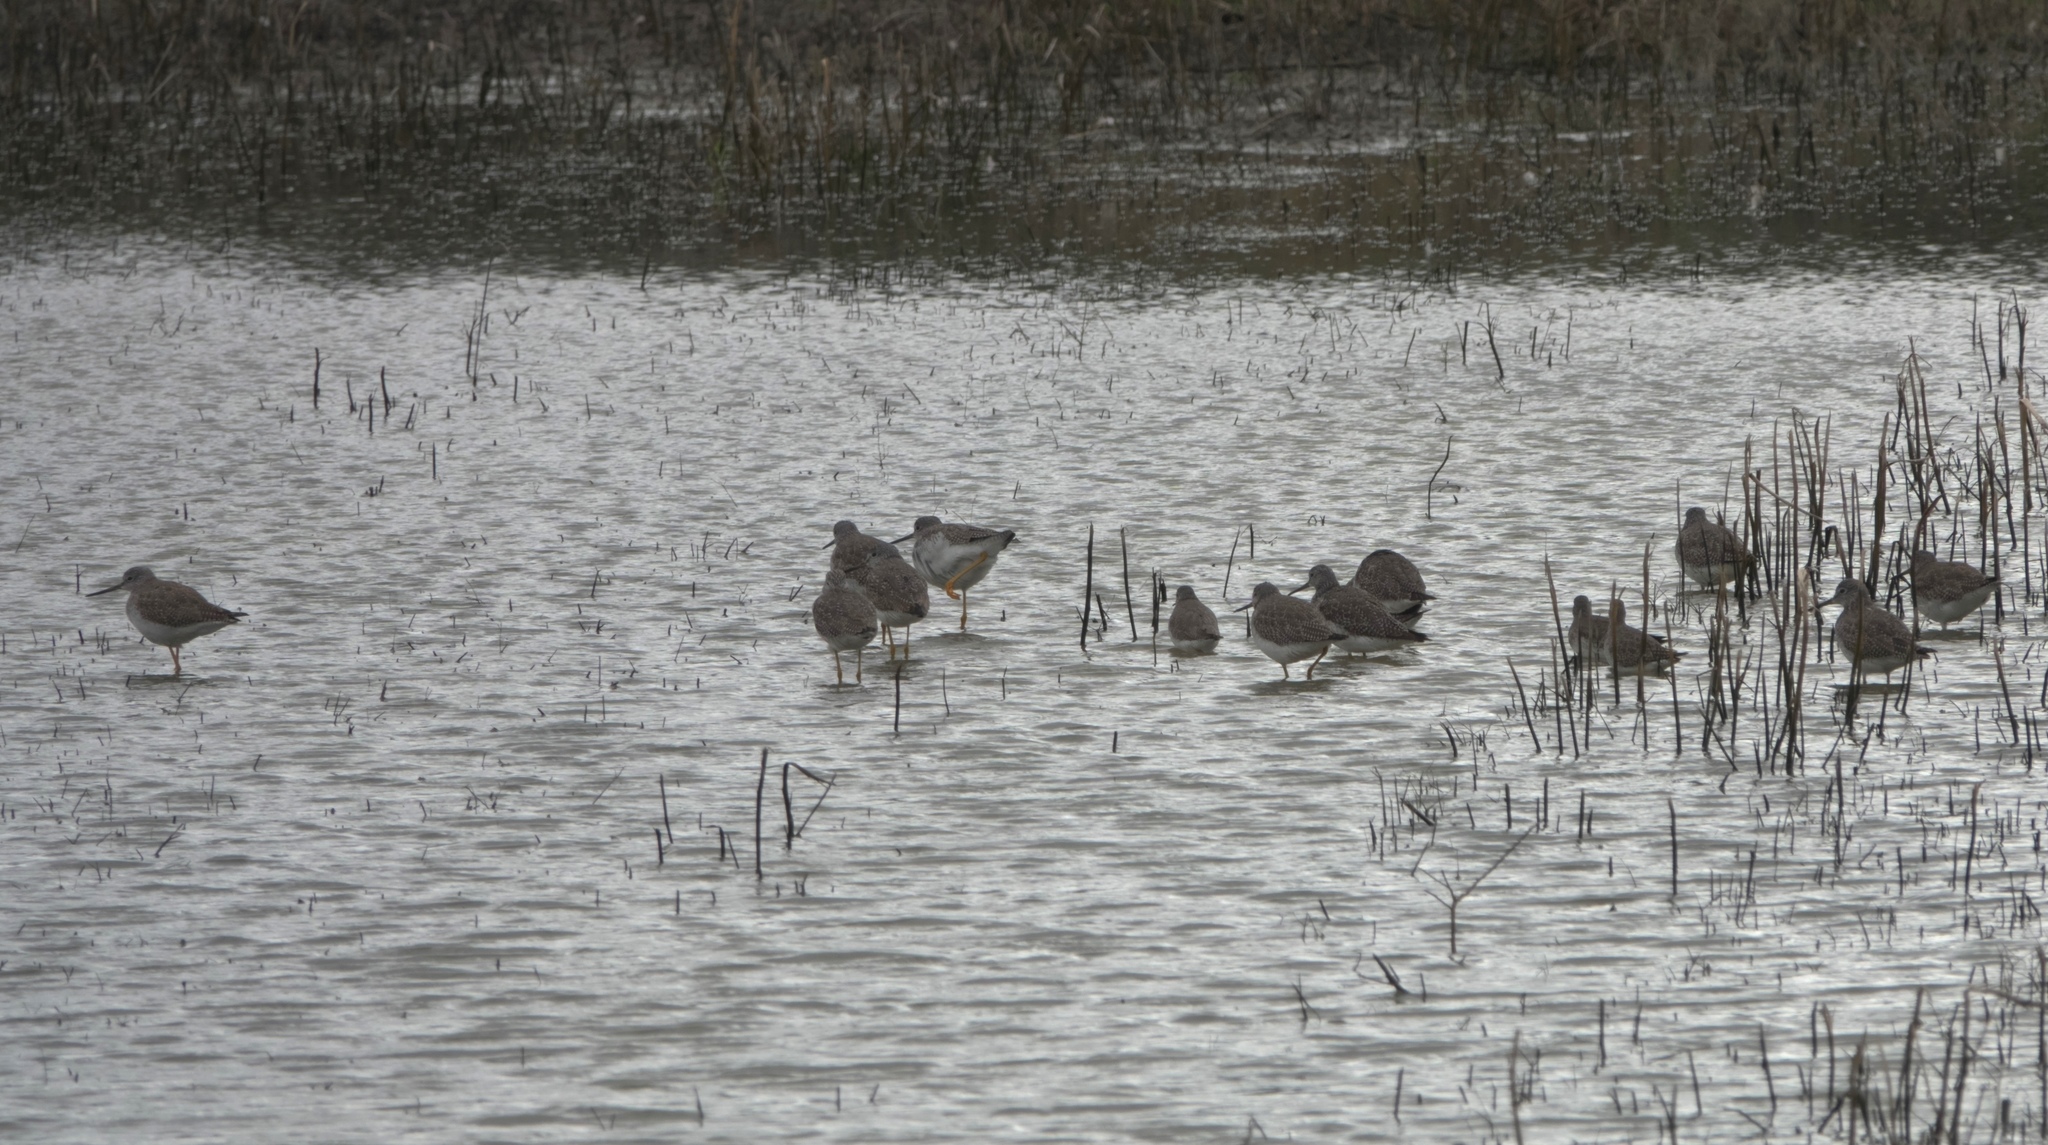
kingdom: Animalia
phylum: Chordata
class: Aves
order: Charadriiformes
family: Scolopacidae
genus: Tringa
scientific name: Tringa melanoleuca
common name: Greater yellowlegs
